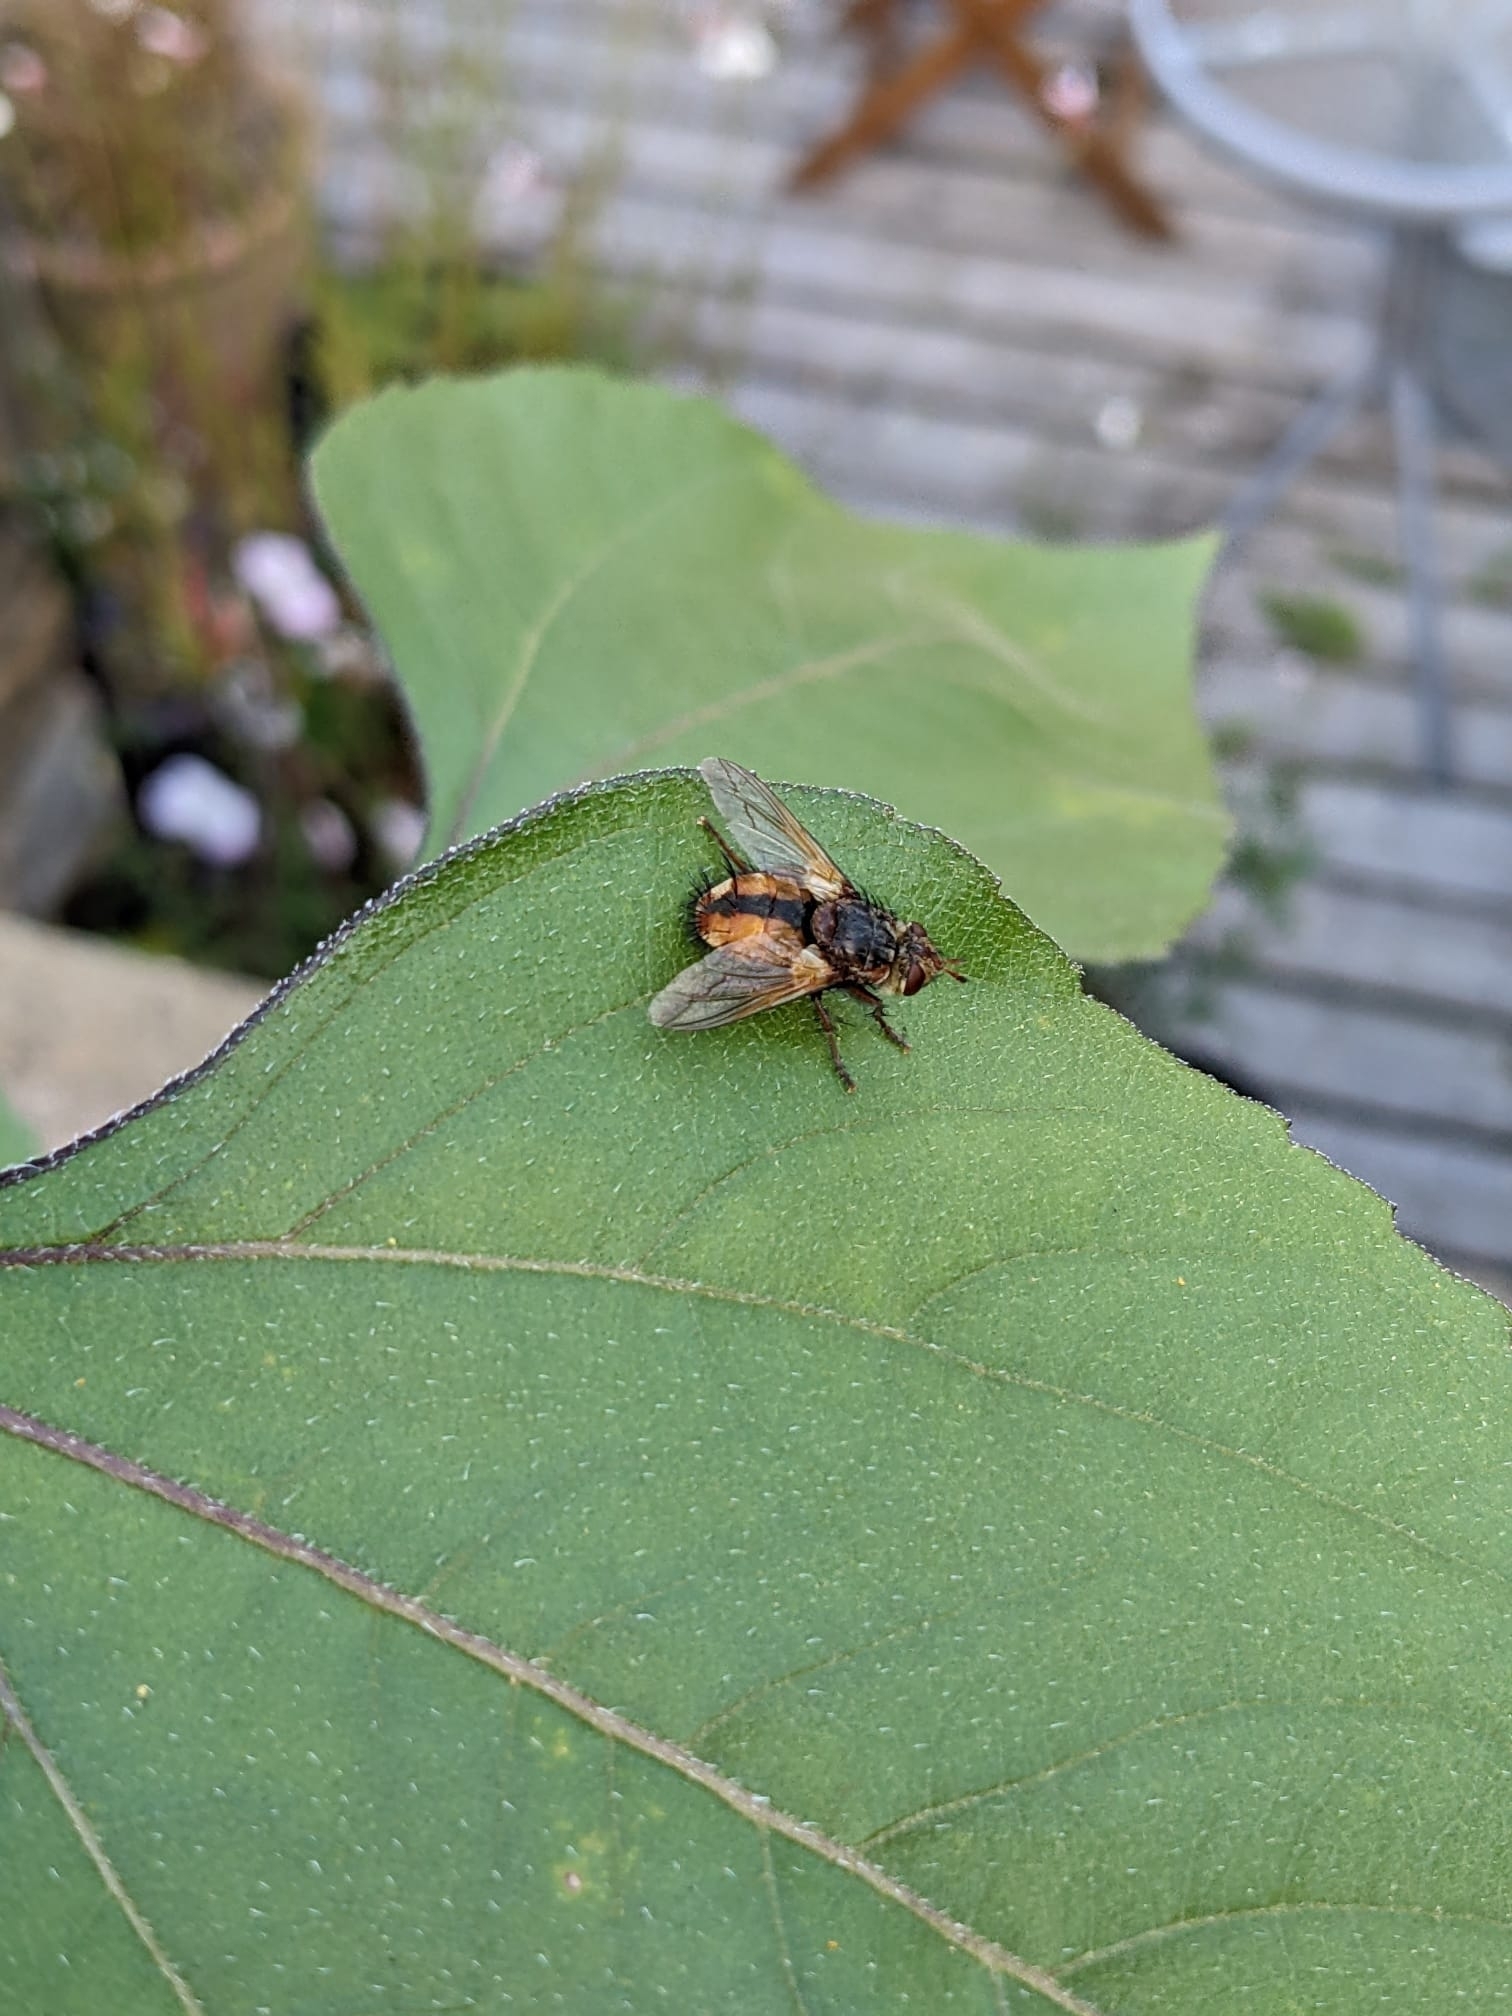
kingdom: Animalia
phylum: Arthropoda
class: Insecta
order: Diptera
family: Tachinidae
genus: Tachina
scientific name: Tachina fera
